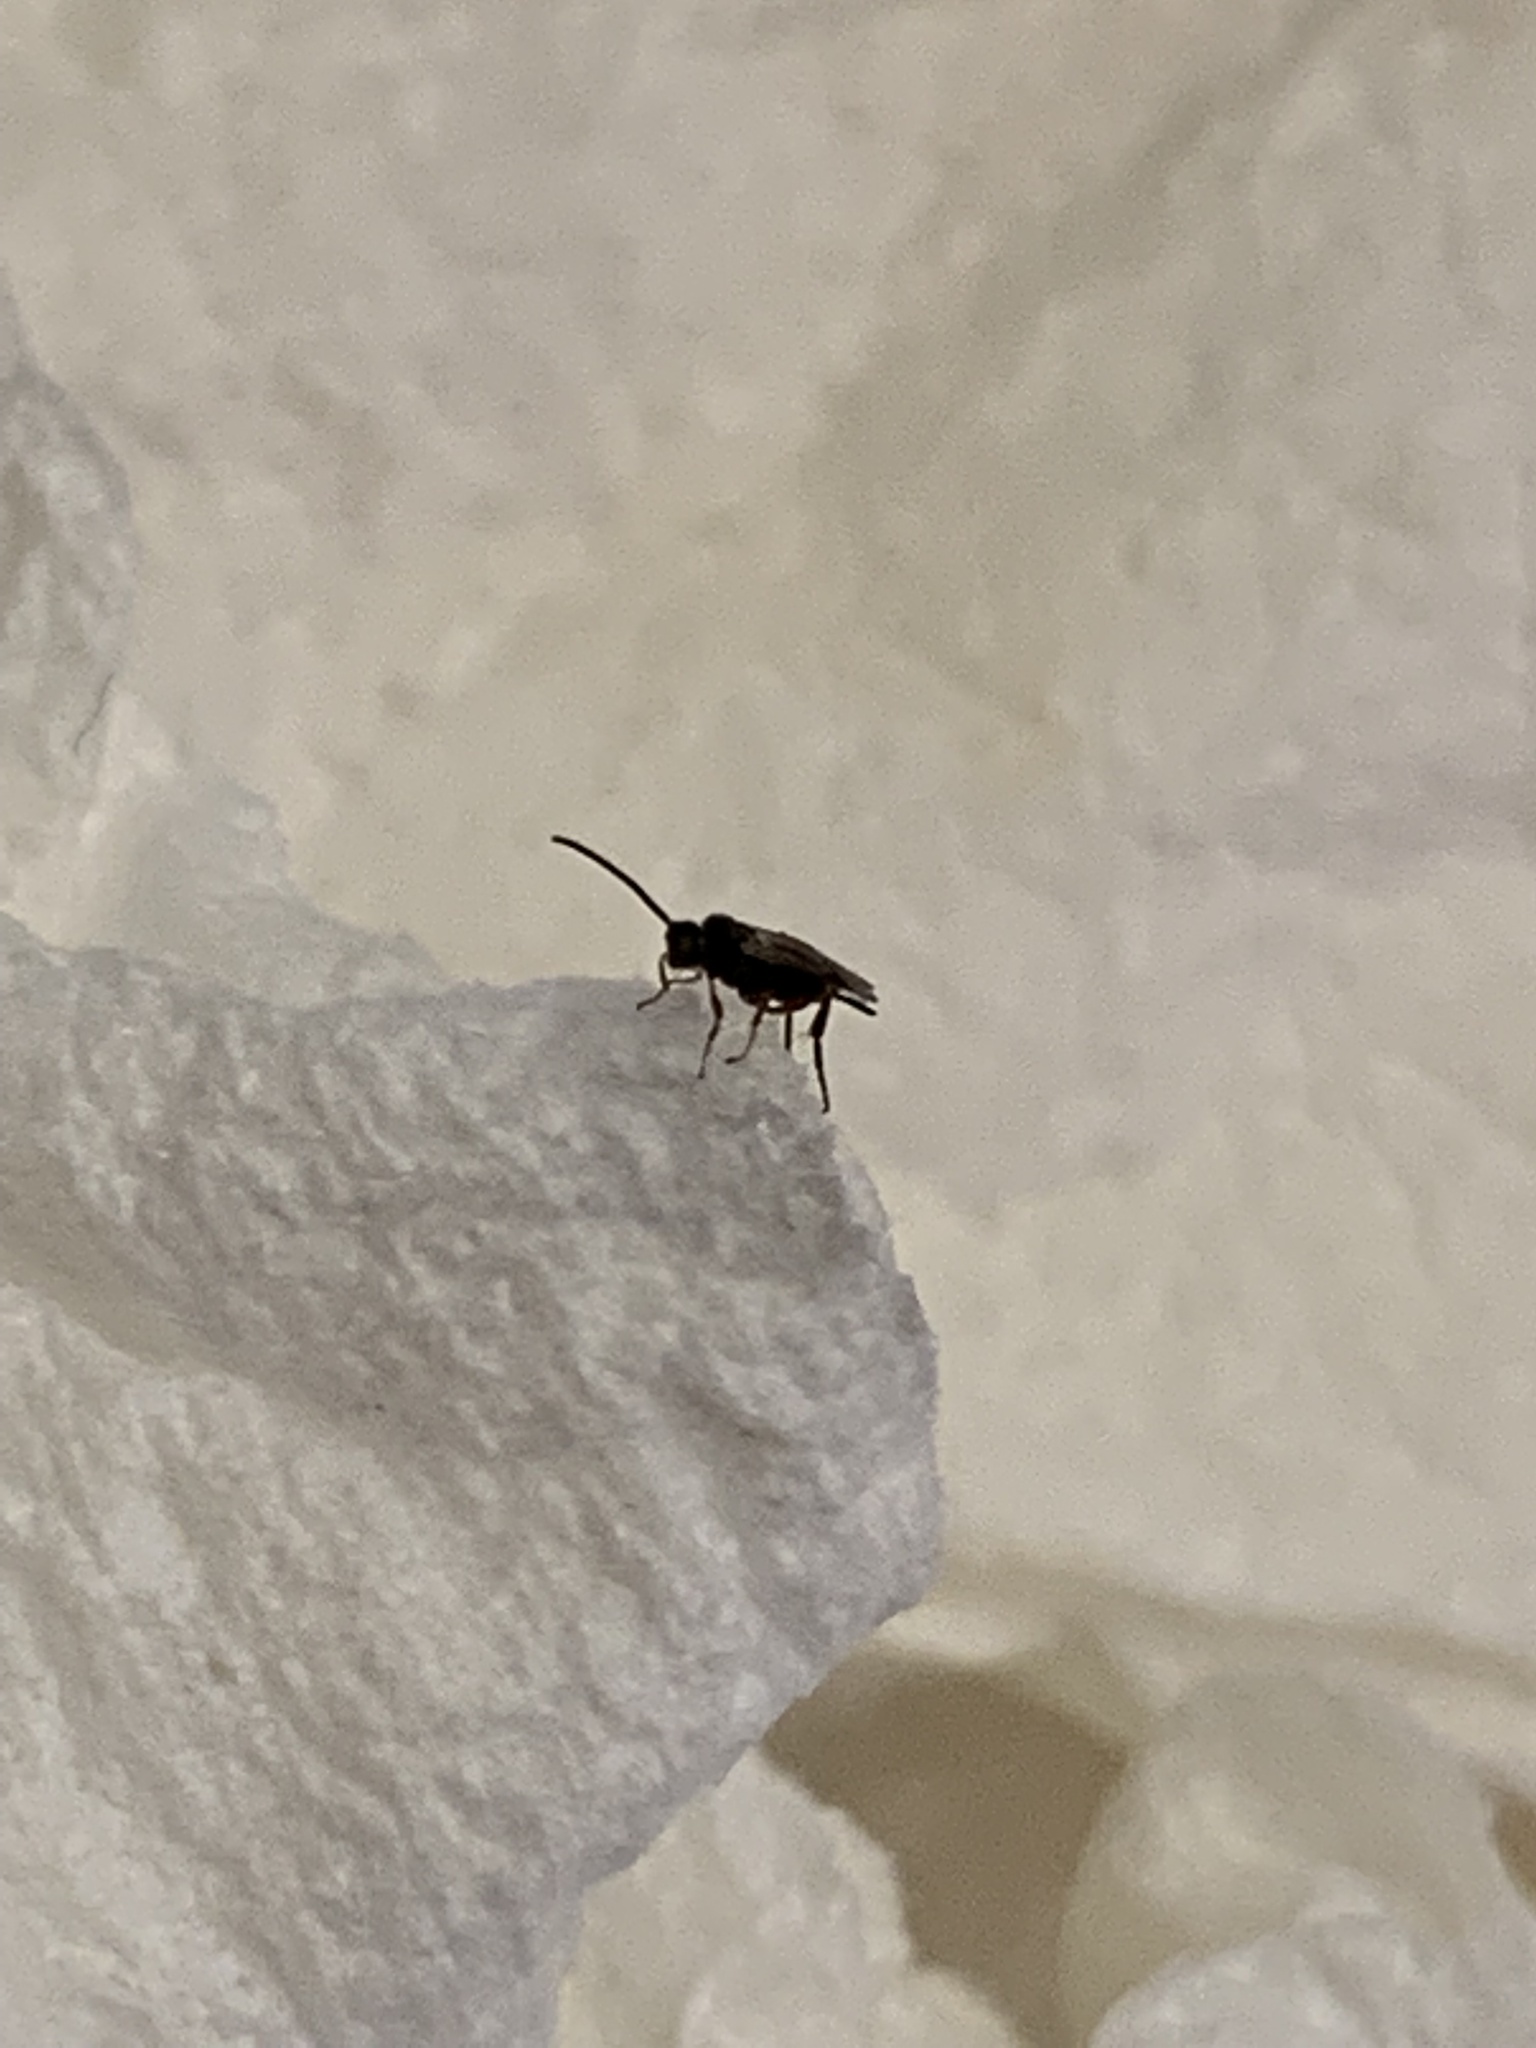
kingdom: Animalia
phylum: Arthropoda
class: Insecta
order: Hymenoptera
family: Braconidae
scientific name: Braconidae
